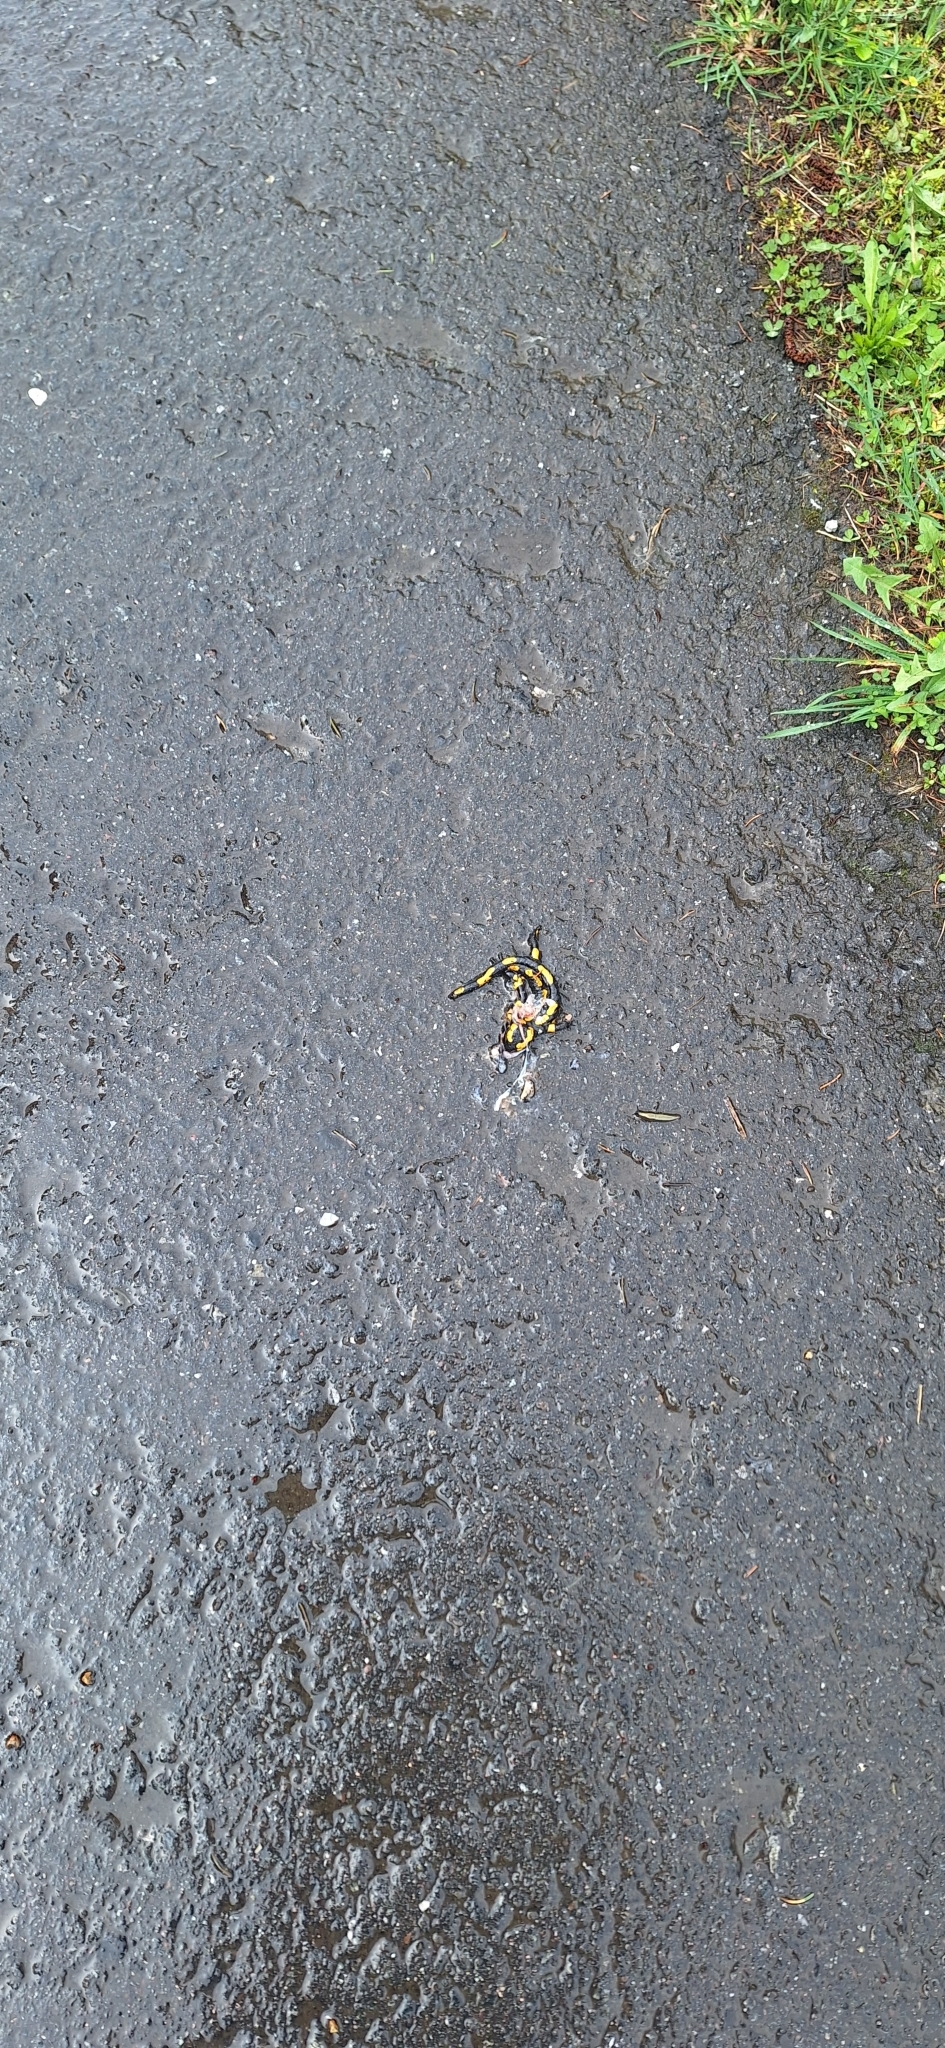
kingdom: Animalia
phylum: Chordata
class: Amphibia
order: Caudata
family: Salamandridae
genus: Salamandra
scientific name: Salamandra salamandra
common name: Fire salamander
